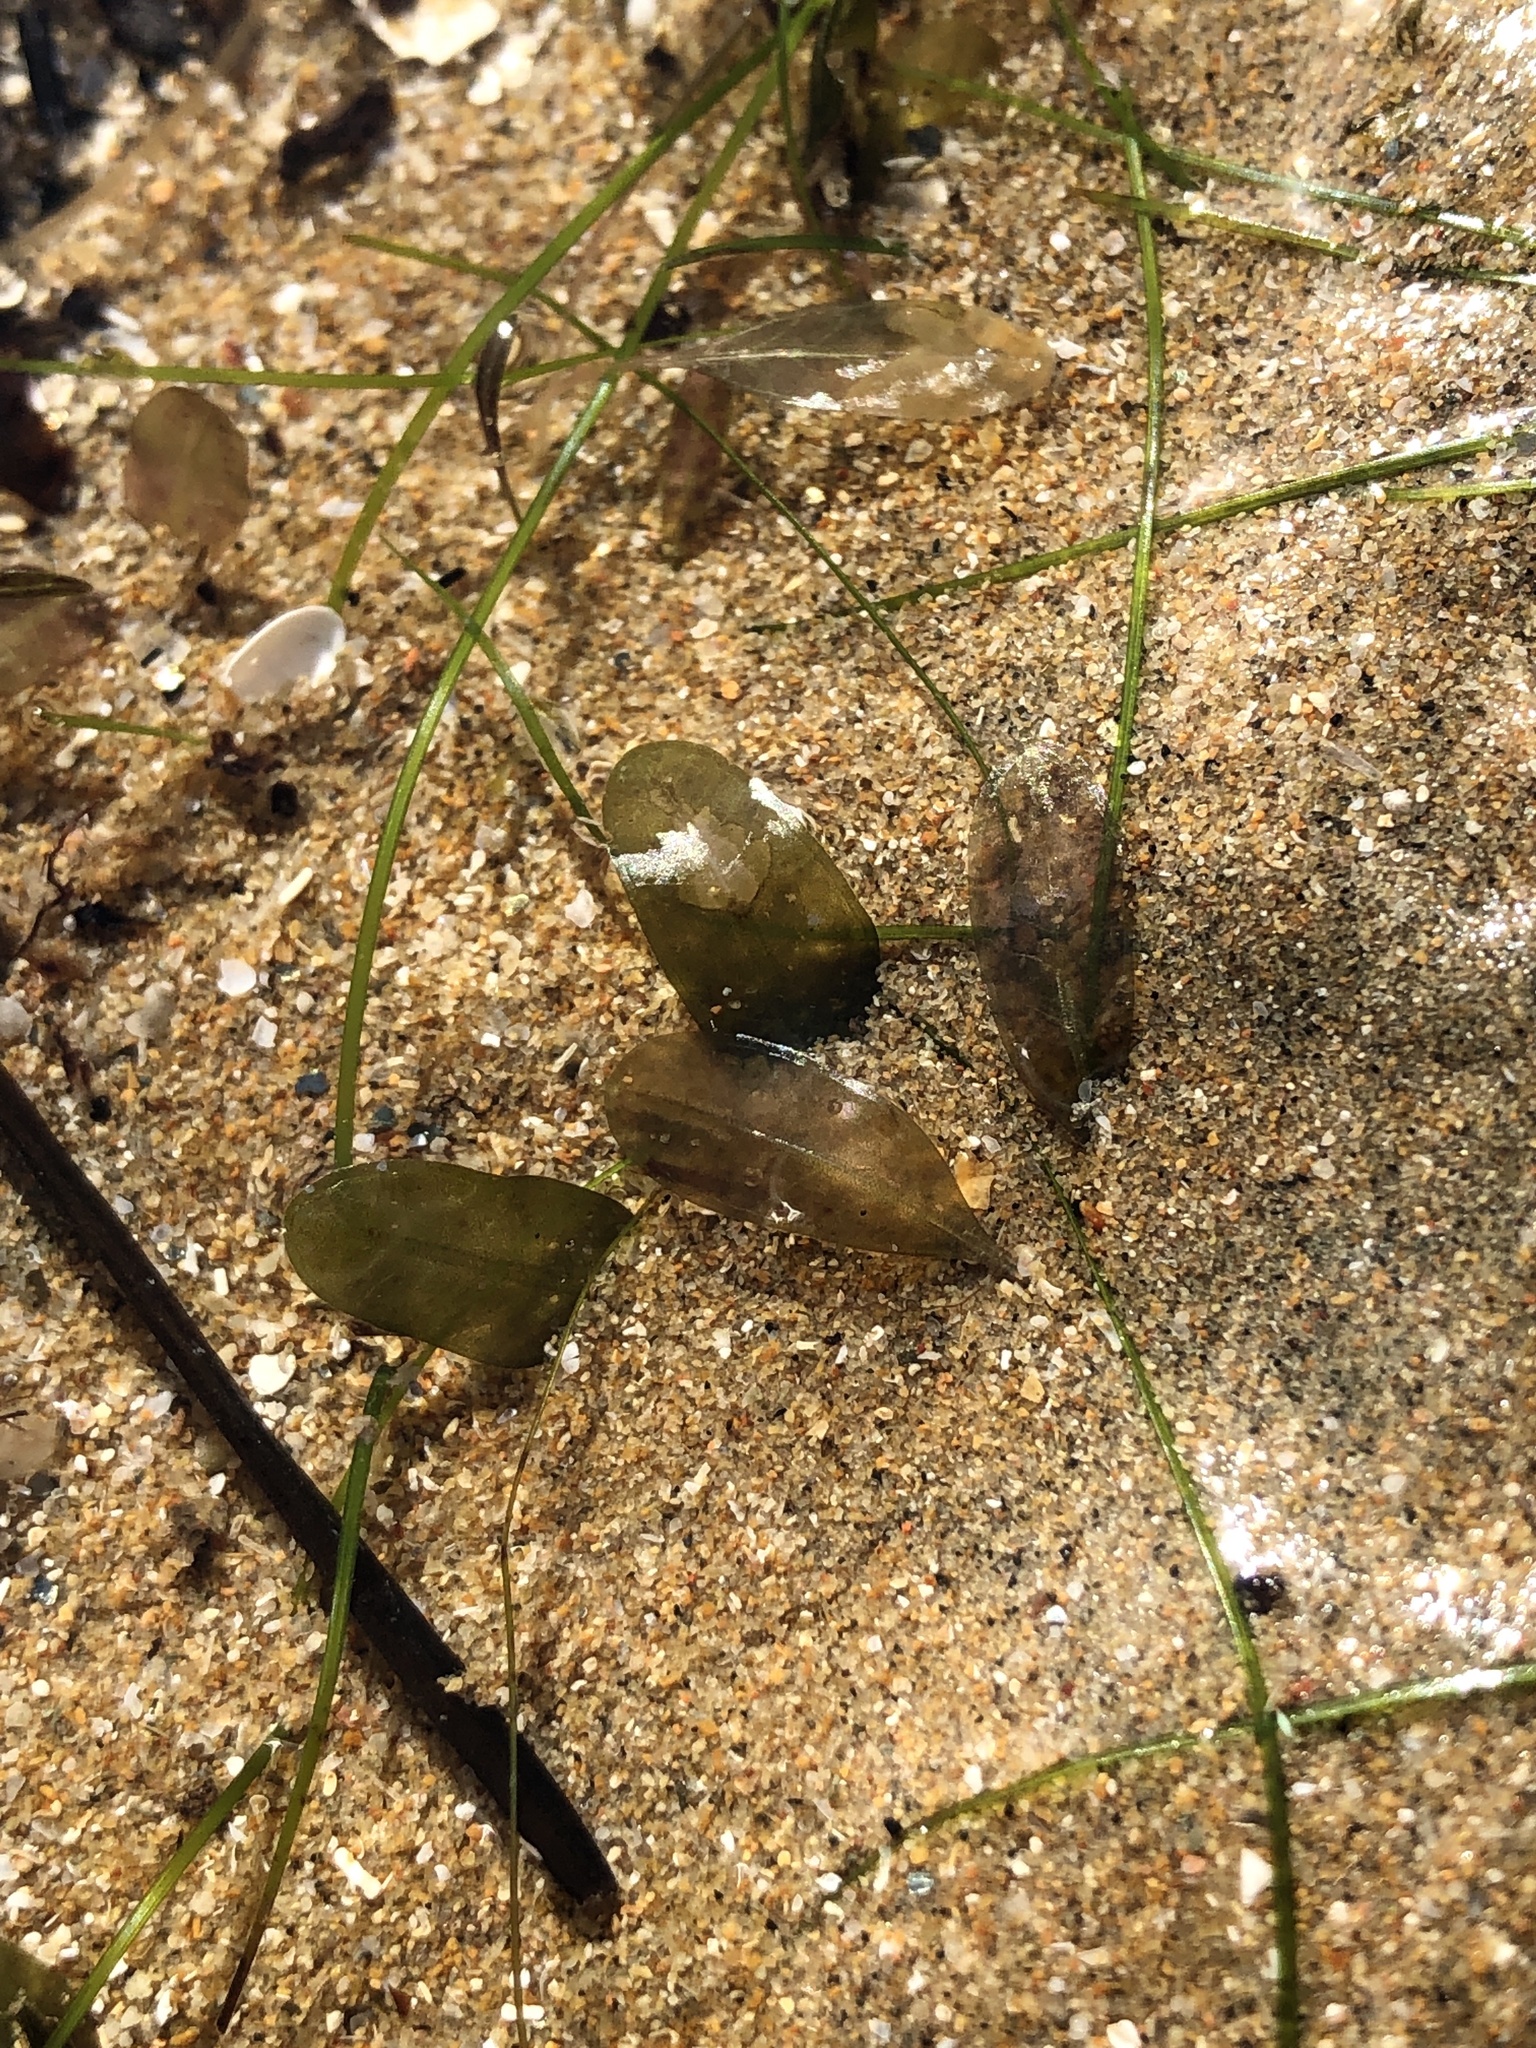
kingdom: Plantae
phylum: Tracheophyta
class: Liliopsida
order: Alismatales
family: Hydrocharitaceae
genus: Halophila
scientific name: Halophila ovalis
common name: Species code: ho
